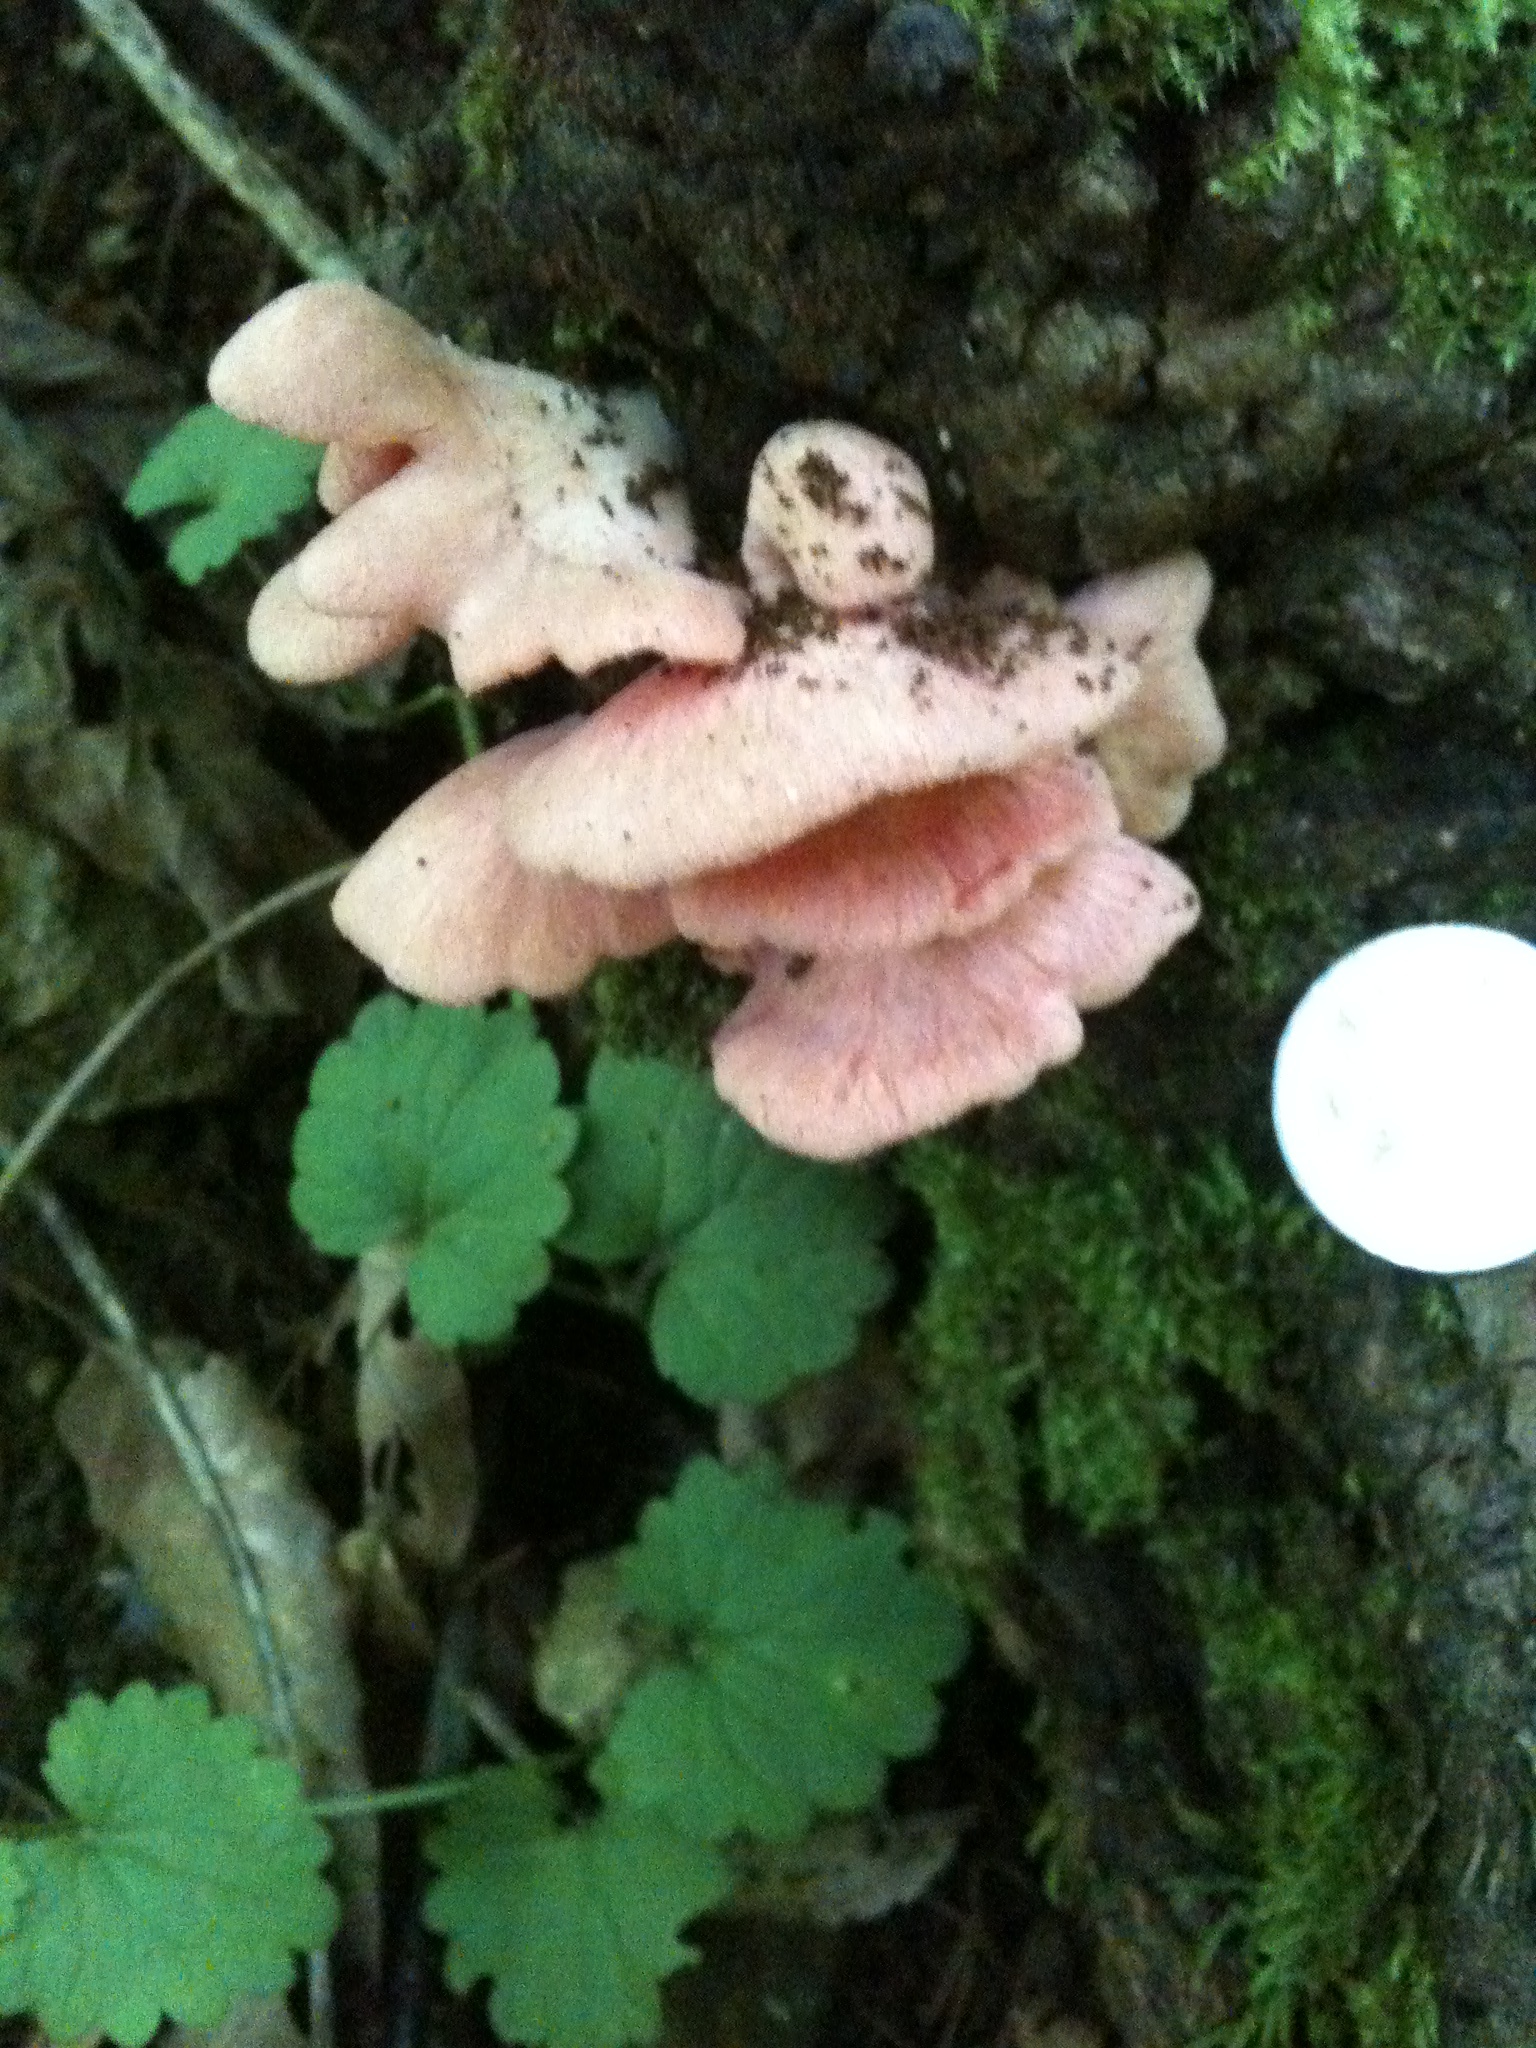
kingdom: Fungi
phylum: Basidiomycota
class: Agaricomycetes
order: Agaricales
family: Pleurotaceae
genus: Pleurotus
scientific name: Pleurotus djamor
